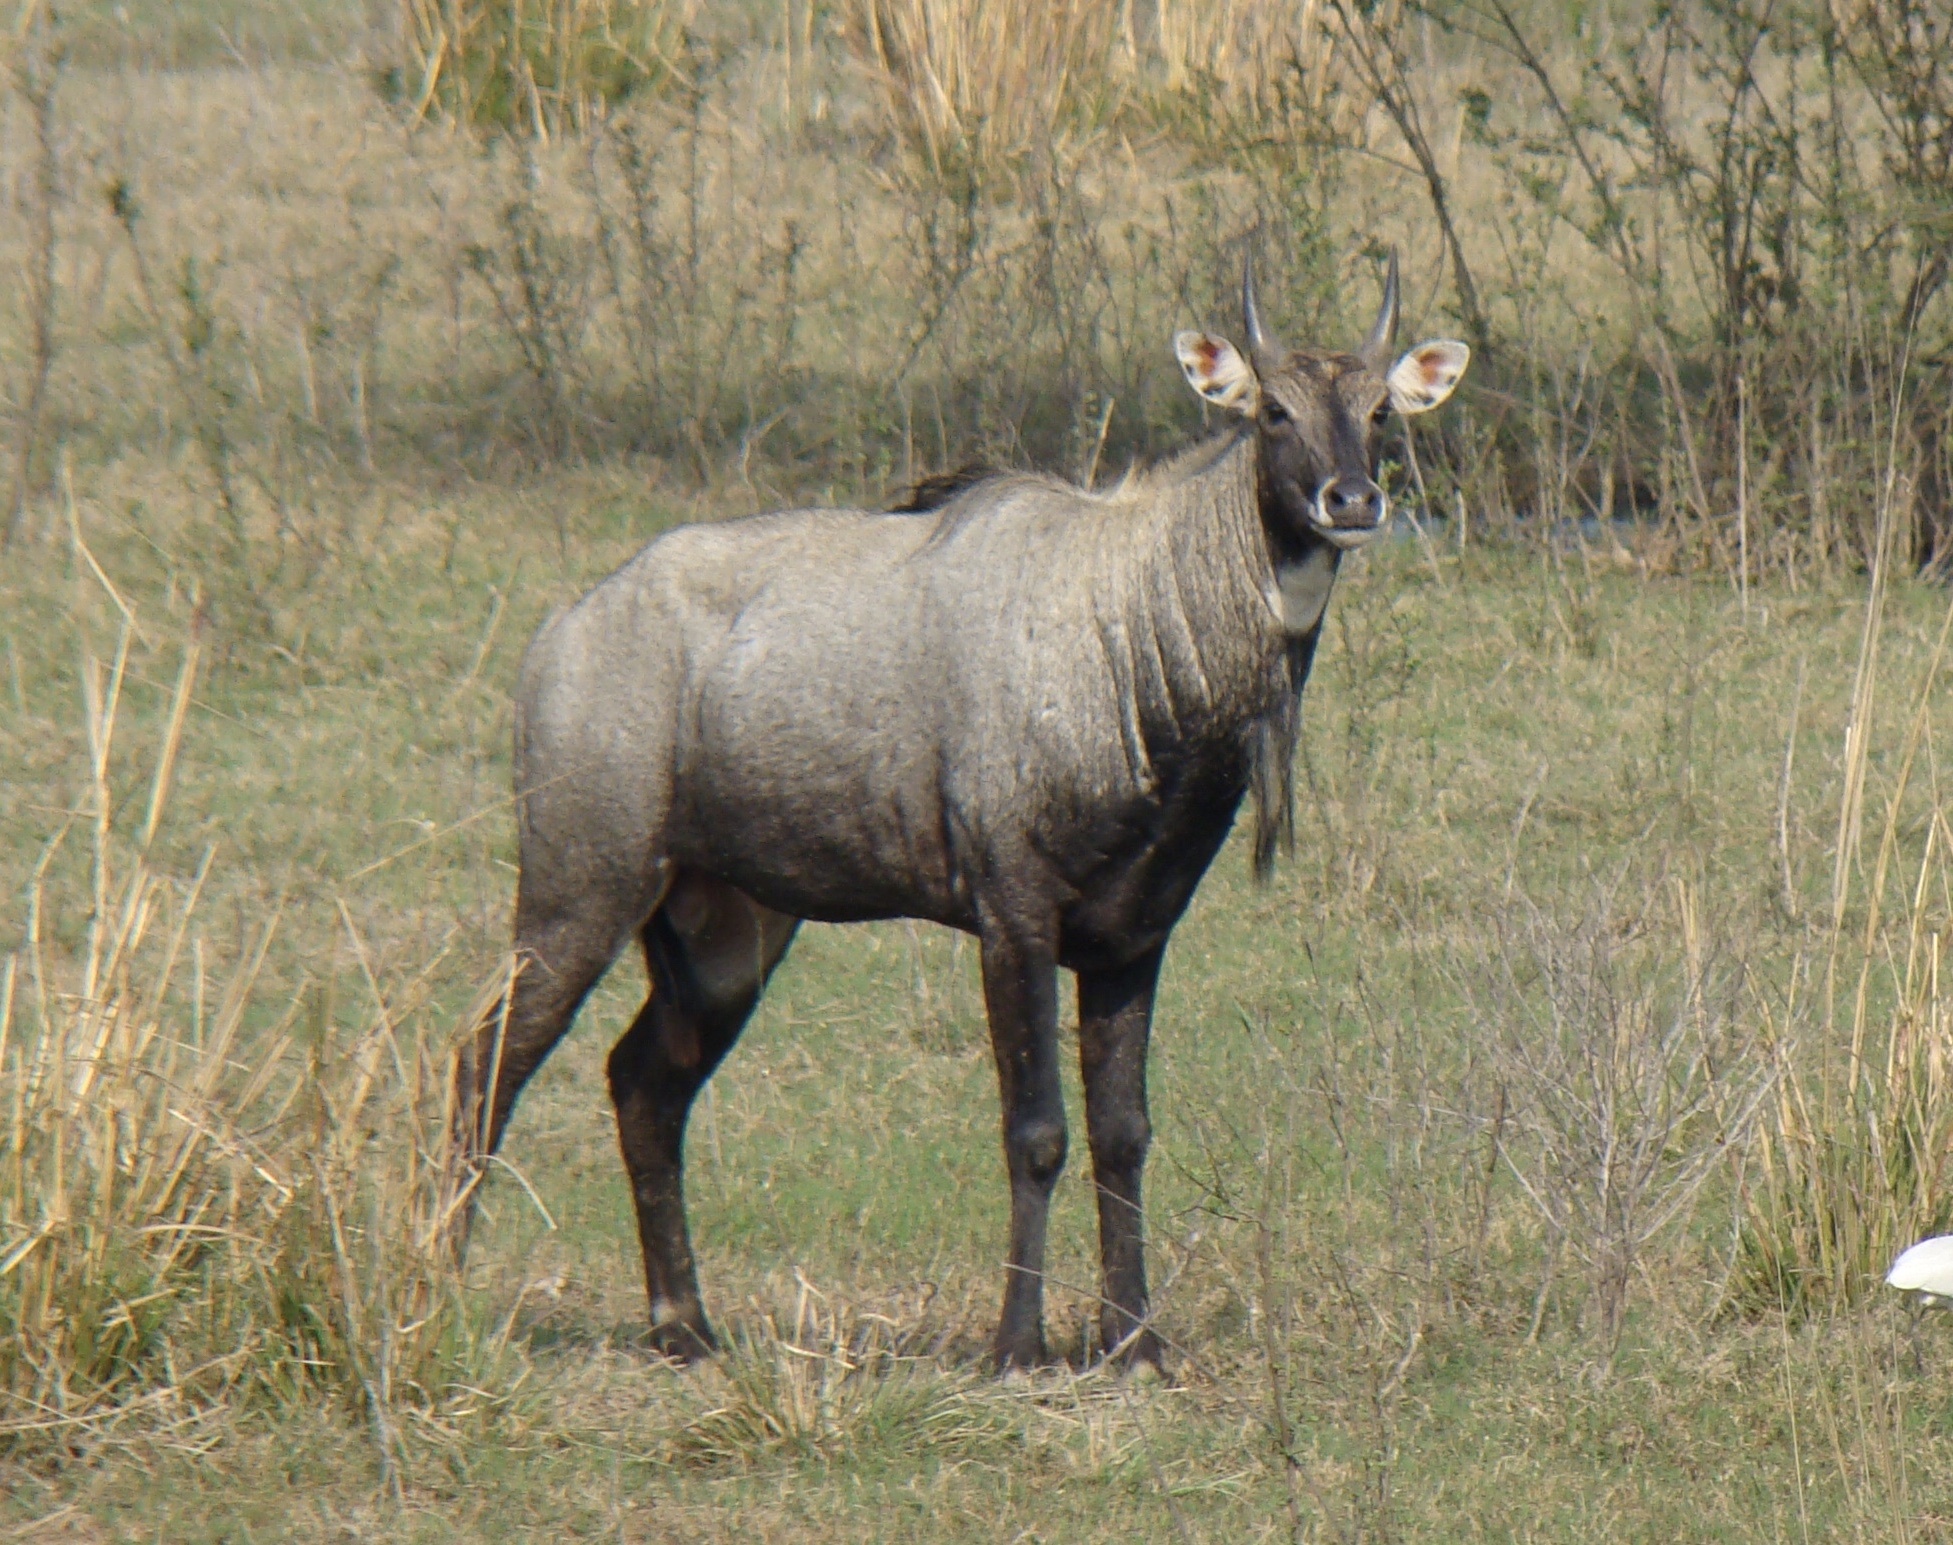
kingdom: Animalia
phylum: Chordata
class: Mammalia
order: Artiodactyla
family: Bovidae
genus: Boselaphus
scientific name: Boselaphus tragocamelus
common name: Nilgai
